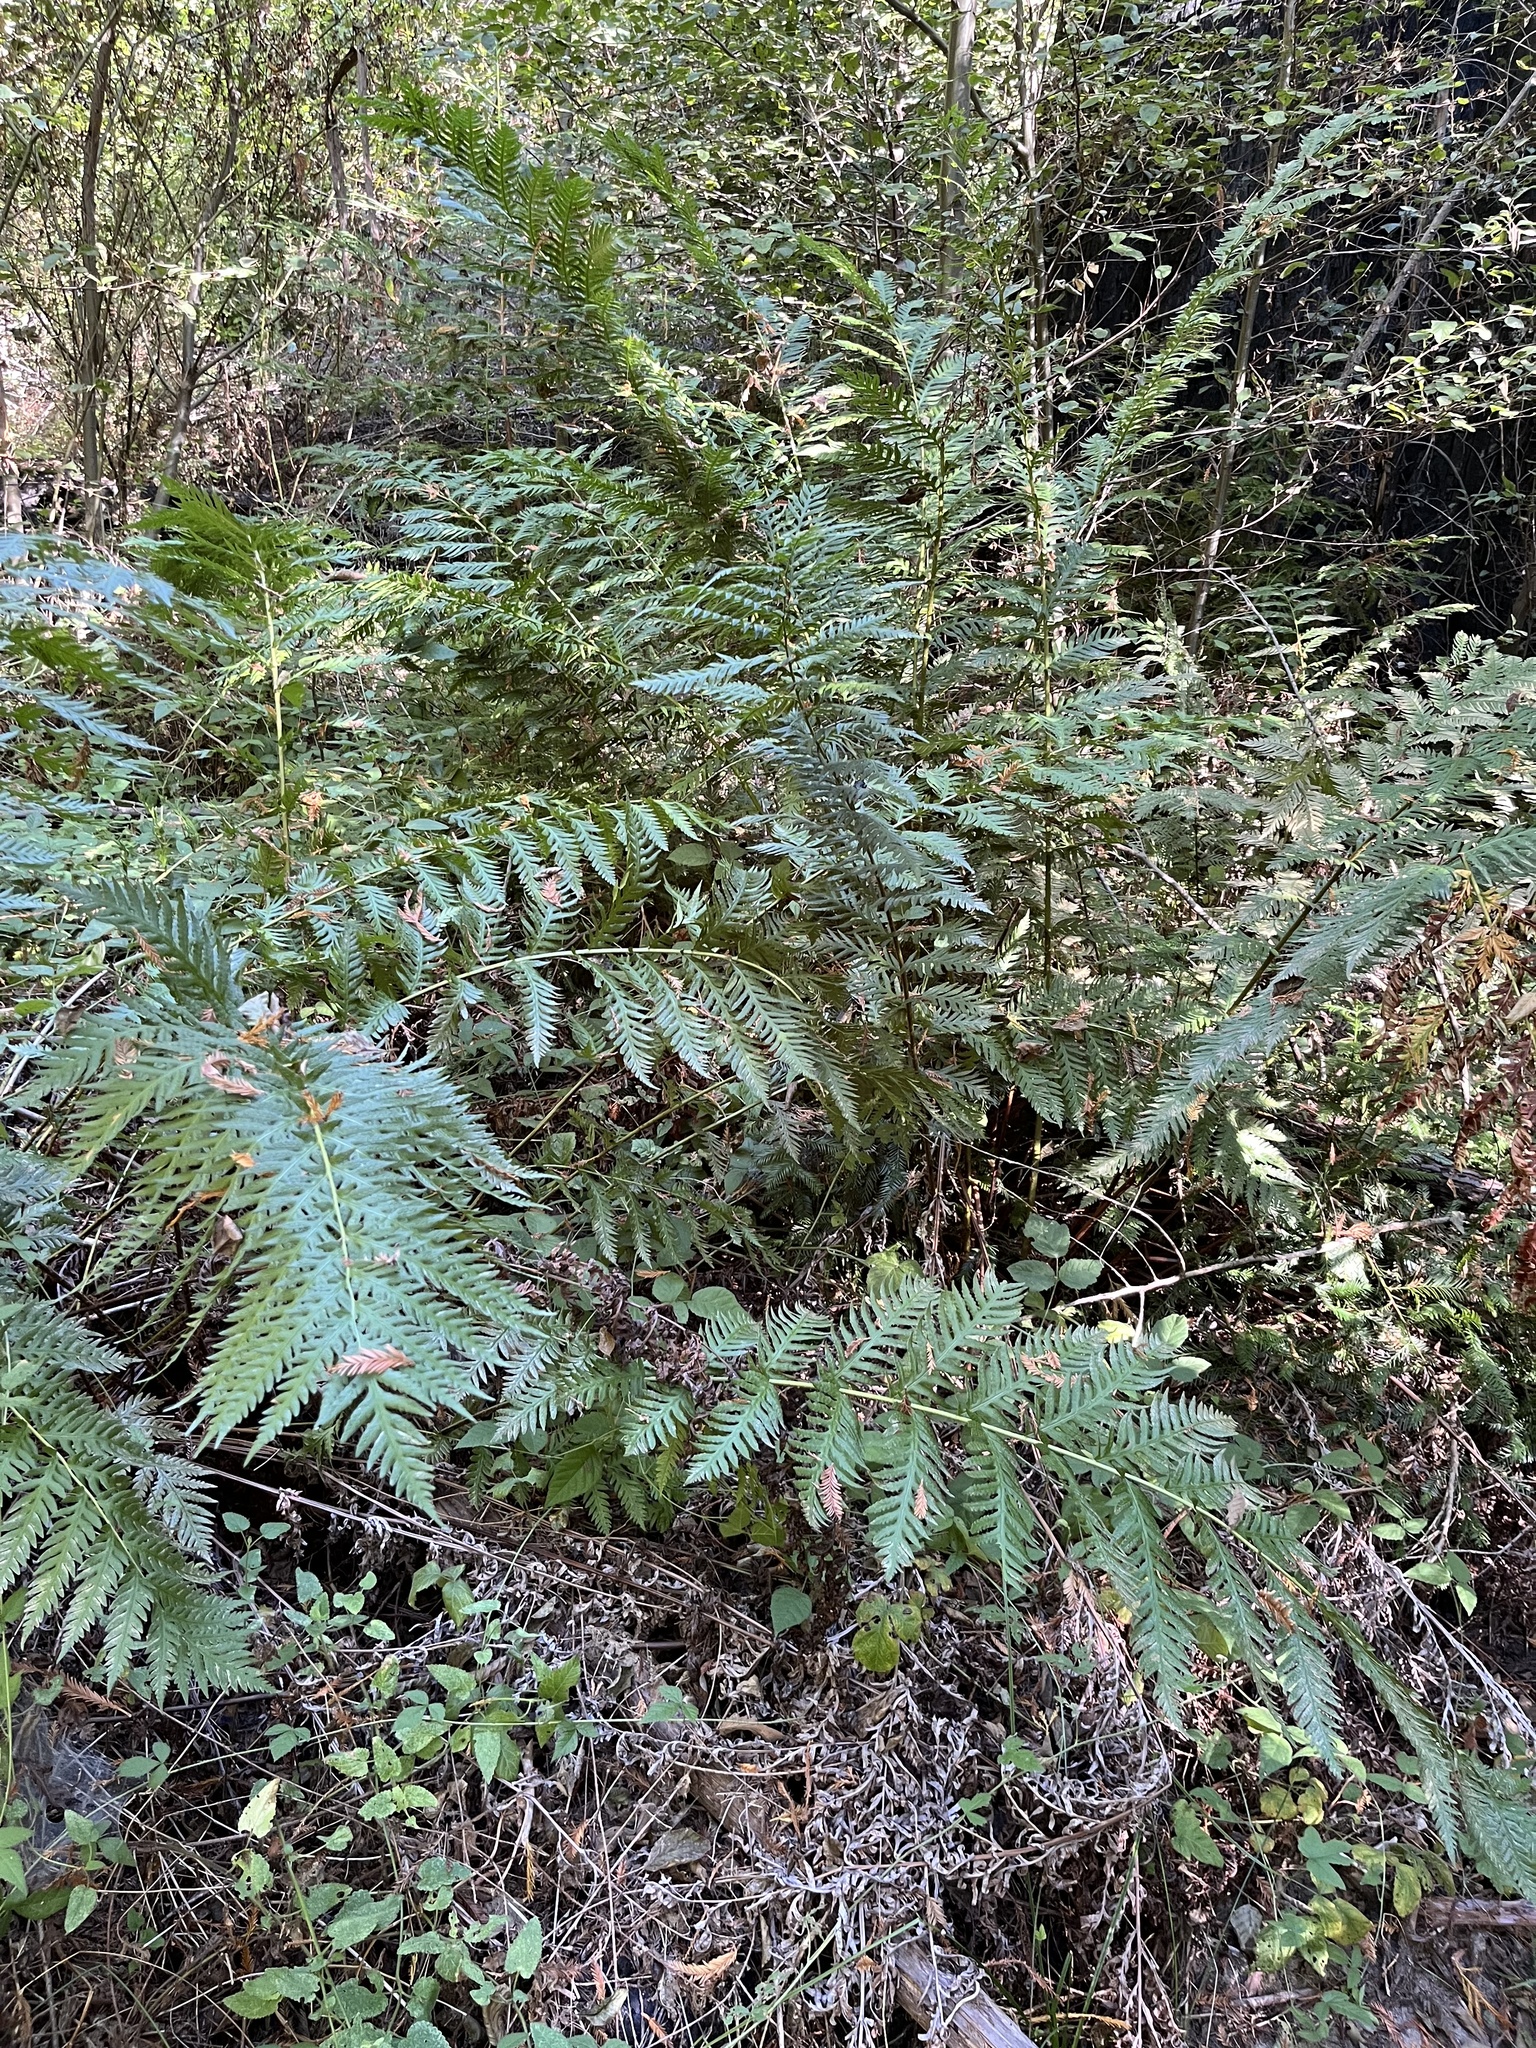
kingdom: Plantae
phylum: Tracheophyta
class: Polypodiopsida
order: Polypodiales
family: Blechnaceae
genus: Woodwardia
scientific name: Woodwardia fimbriata
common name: Giant chain fern
